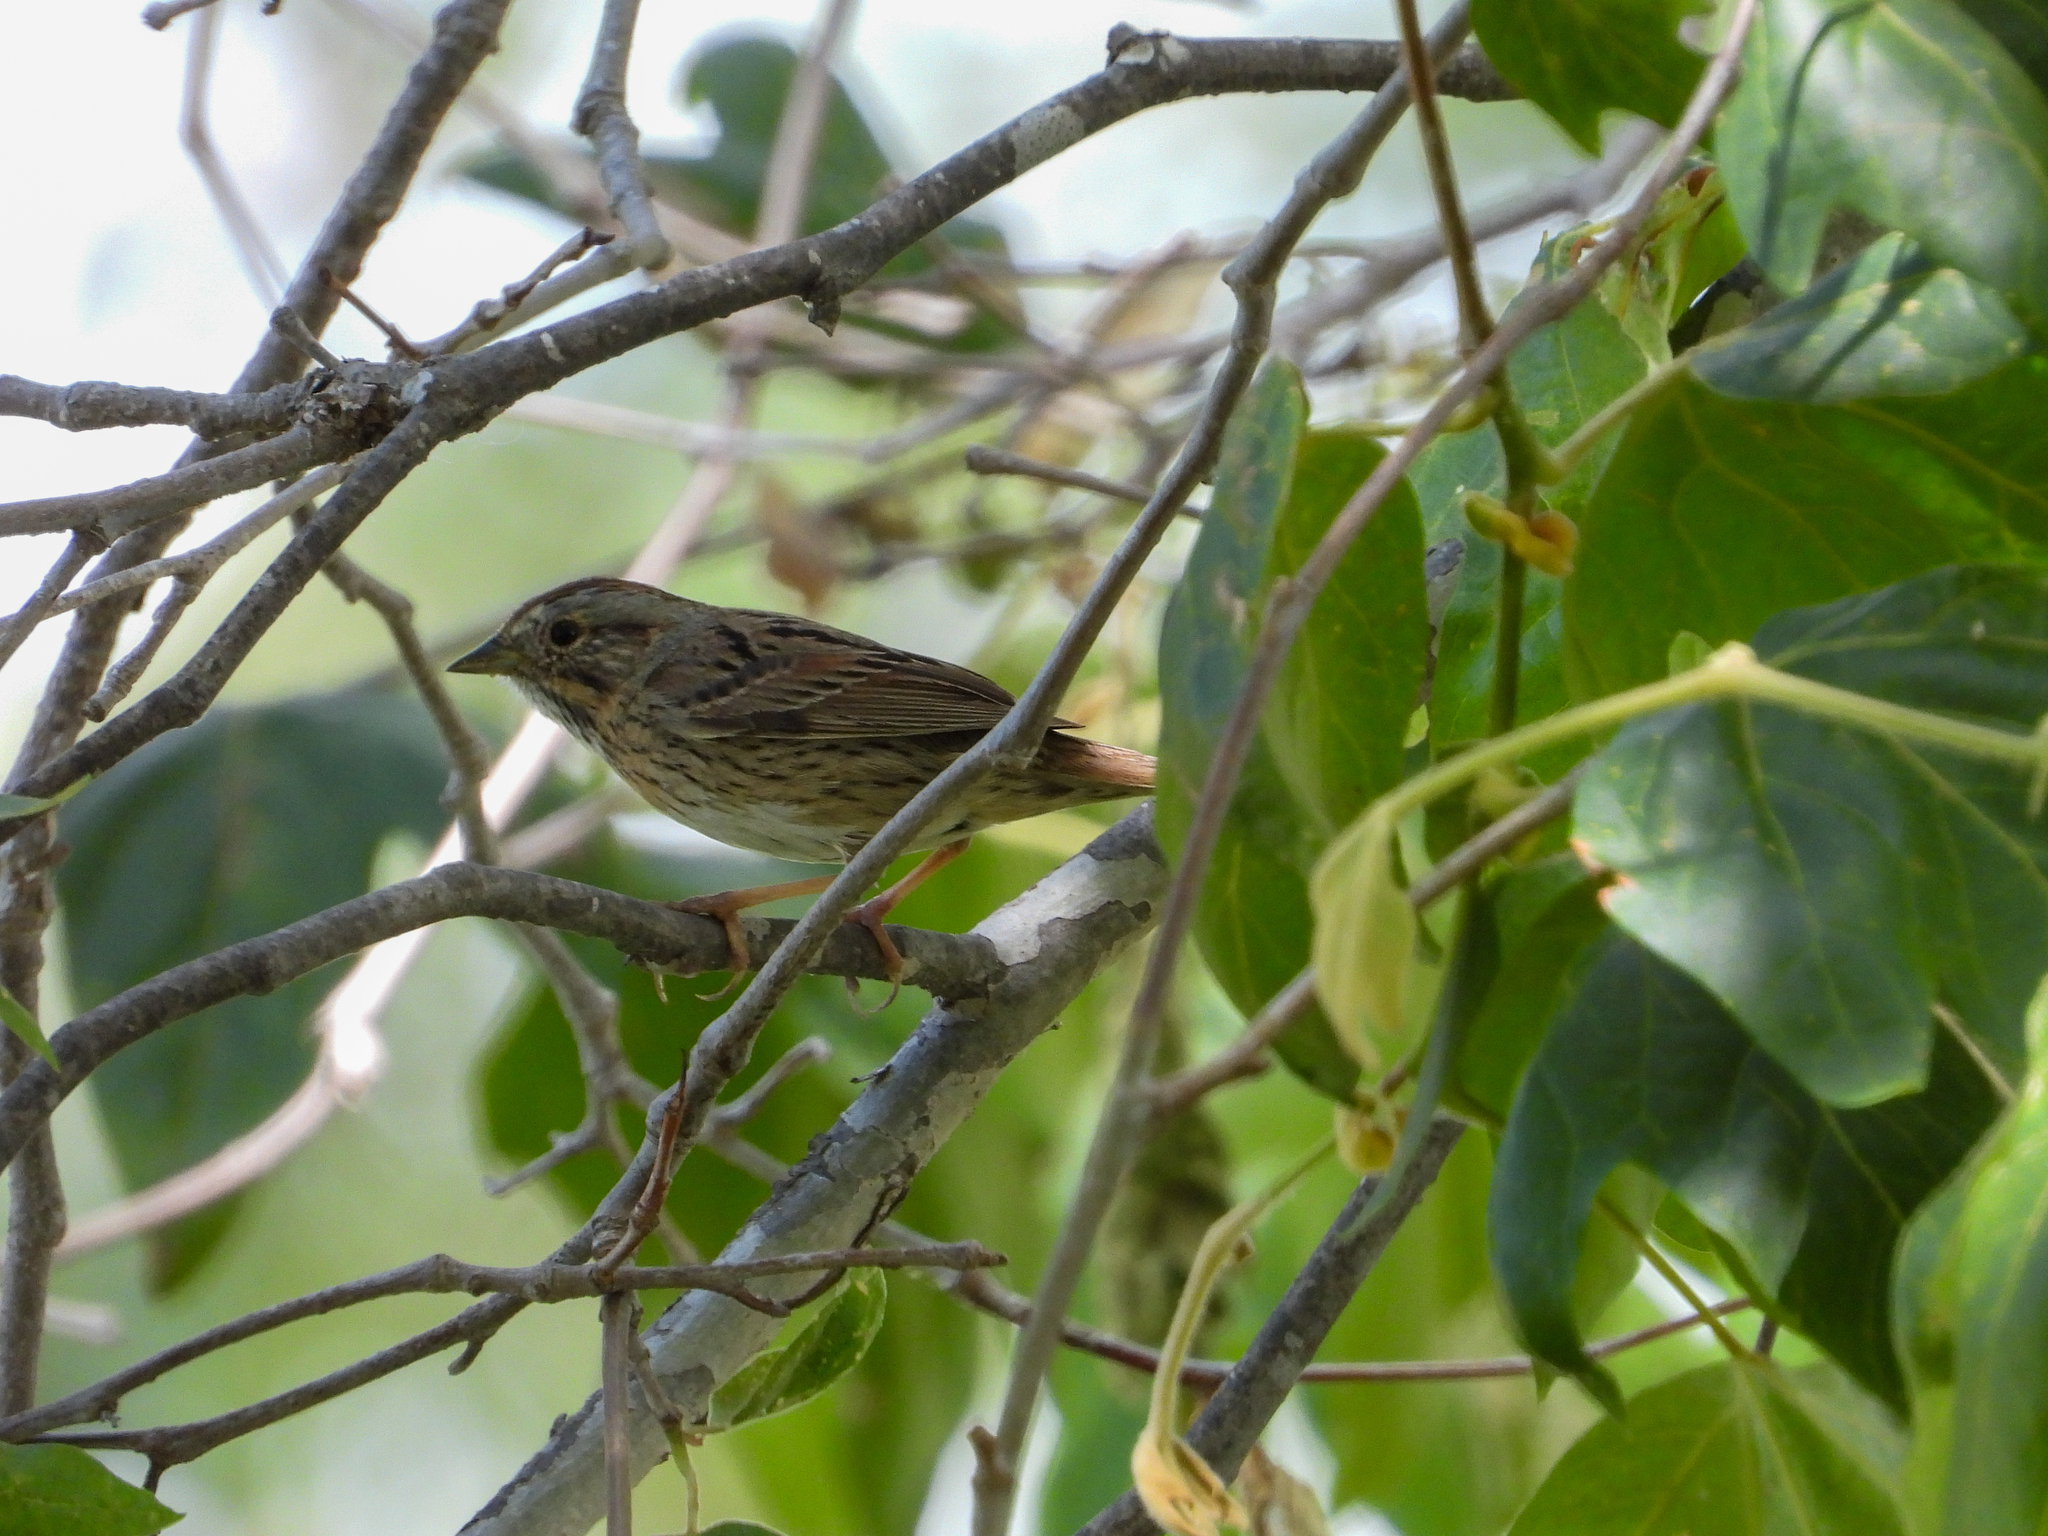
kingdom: Animalia
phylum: Chordata
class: Aves
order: Passeriformes
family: Passerellidae
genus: Melospiza
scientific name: Melospiza lincolnii
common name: Lincoln's sparrow
